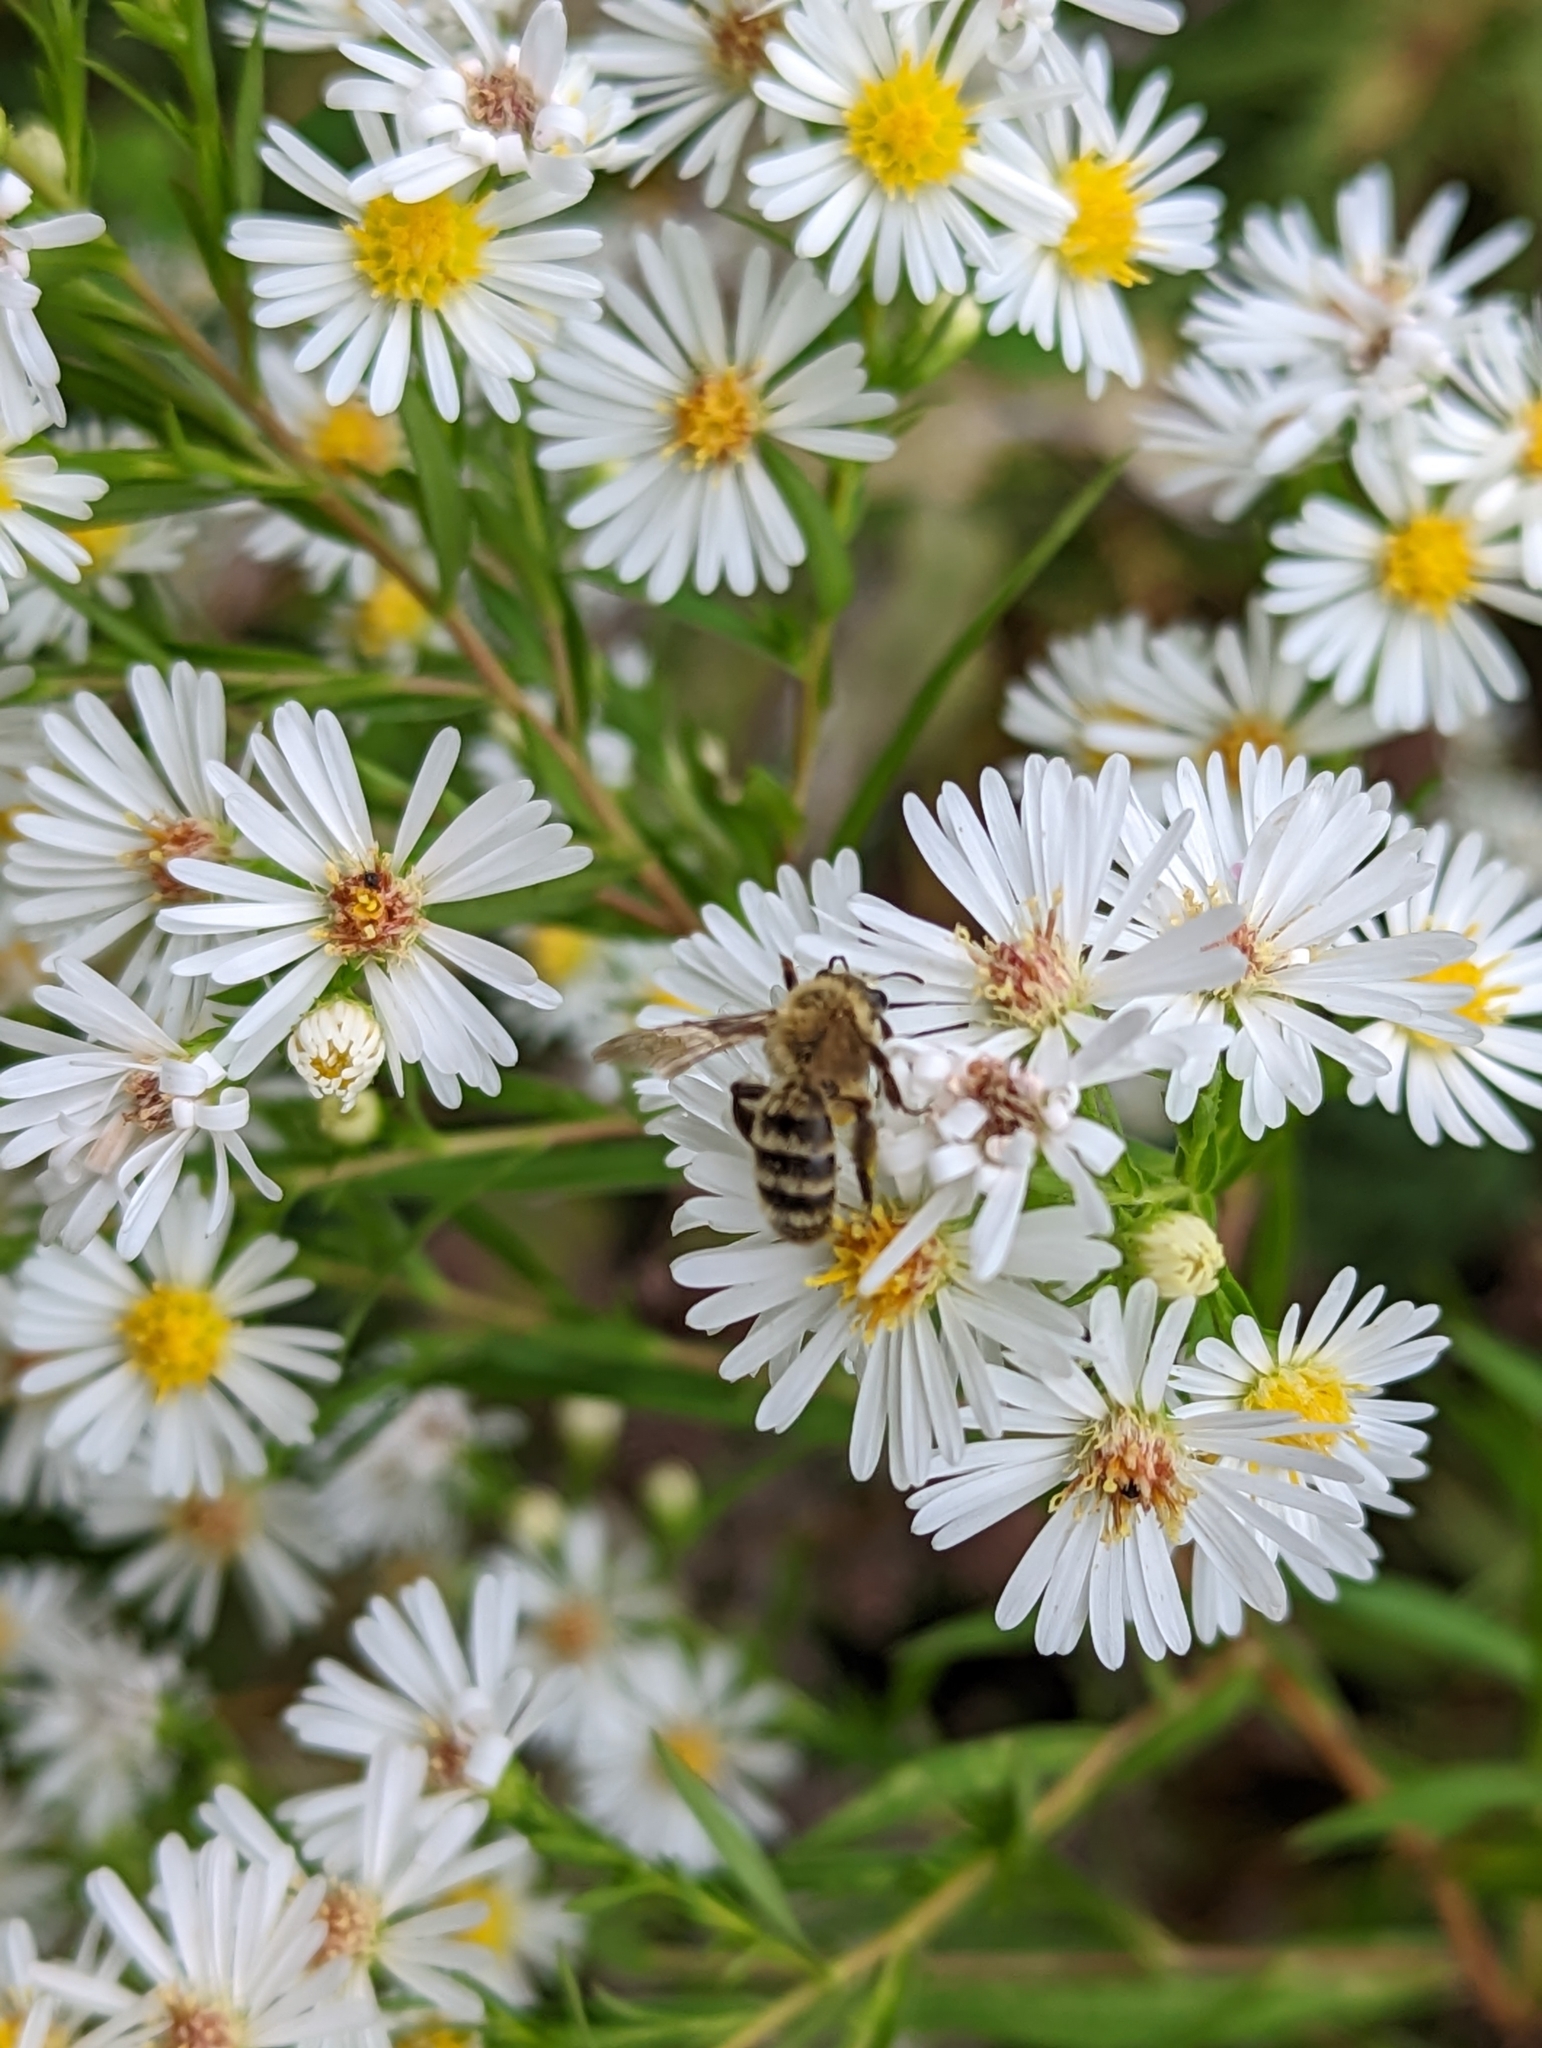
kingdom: Animalia
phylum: Arthropoda
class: Insecta
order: Hymenoptera
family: Andrenidae
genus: Andrena
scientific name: Andrena hirticincta
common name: Hairy-banded mining bee
